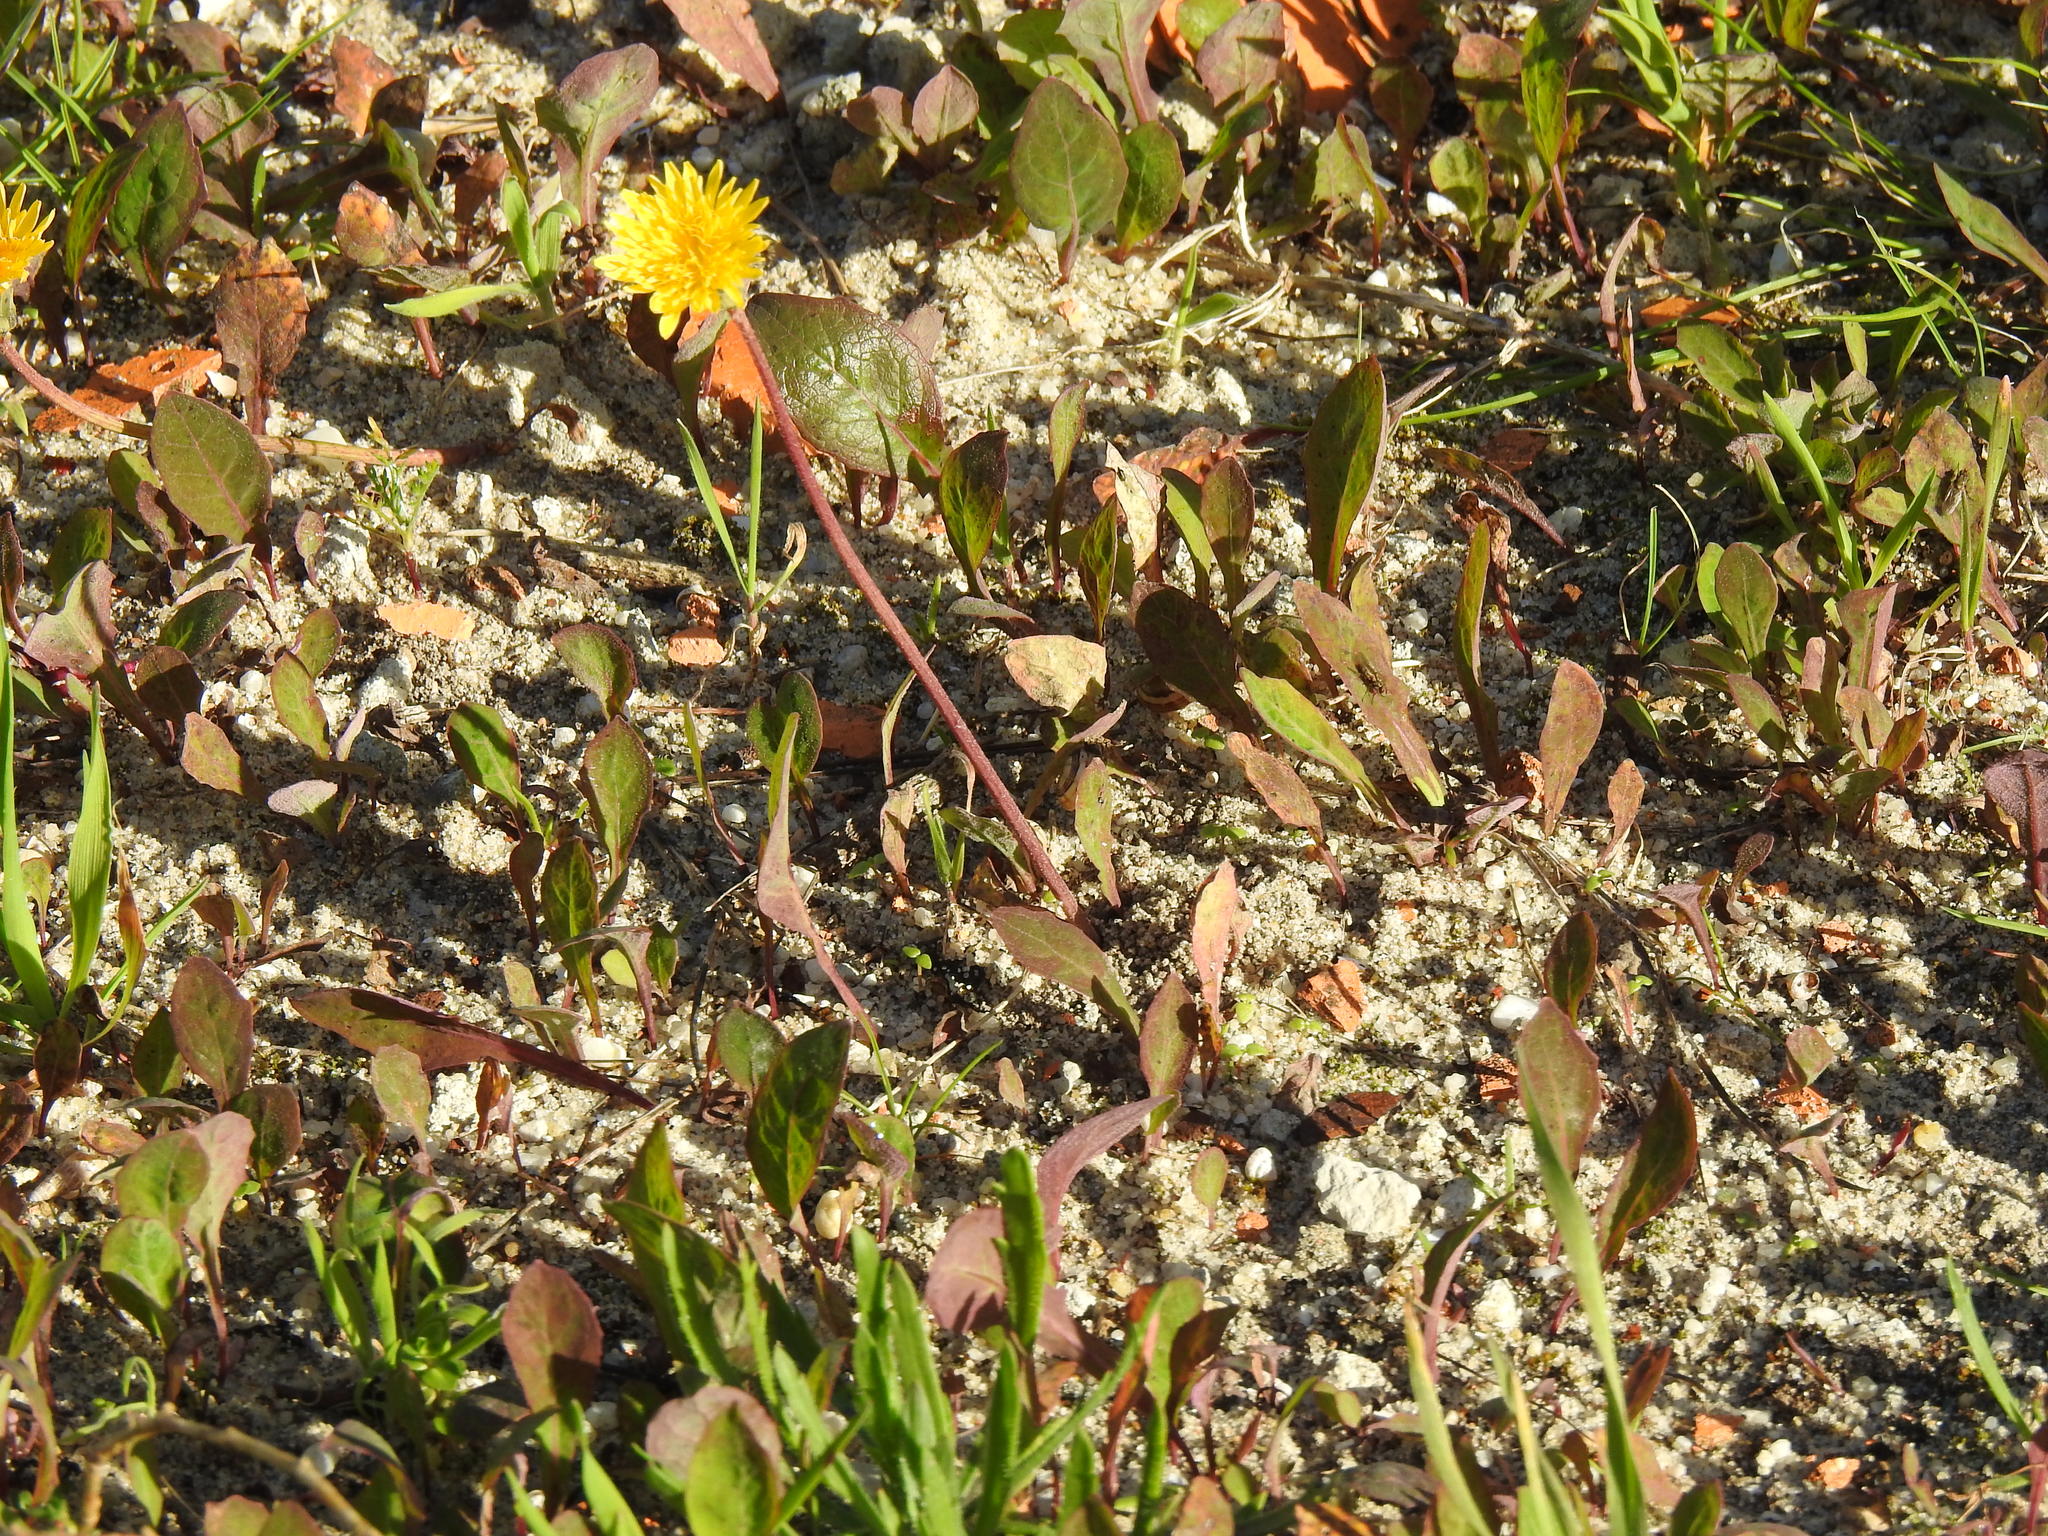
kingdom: Plantae
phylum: Tracheophyta
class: Magnoliopsida
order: Asterales
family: Asteraceae
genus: Aetheorhiza
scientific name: Aetheorhiza bulbosa
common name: Tuberous hawk's-beard
